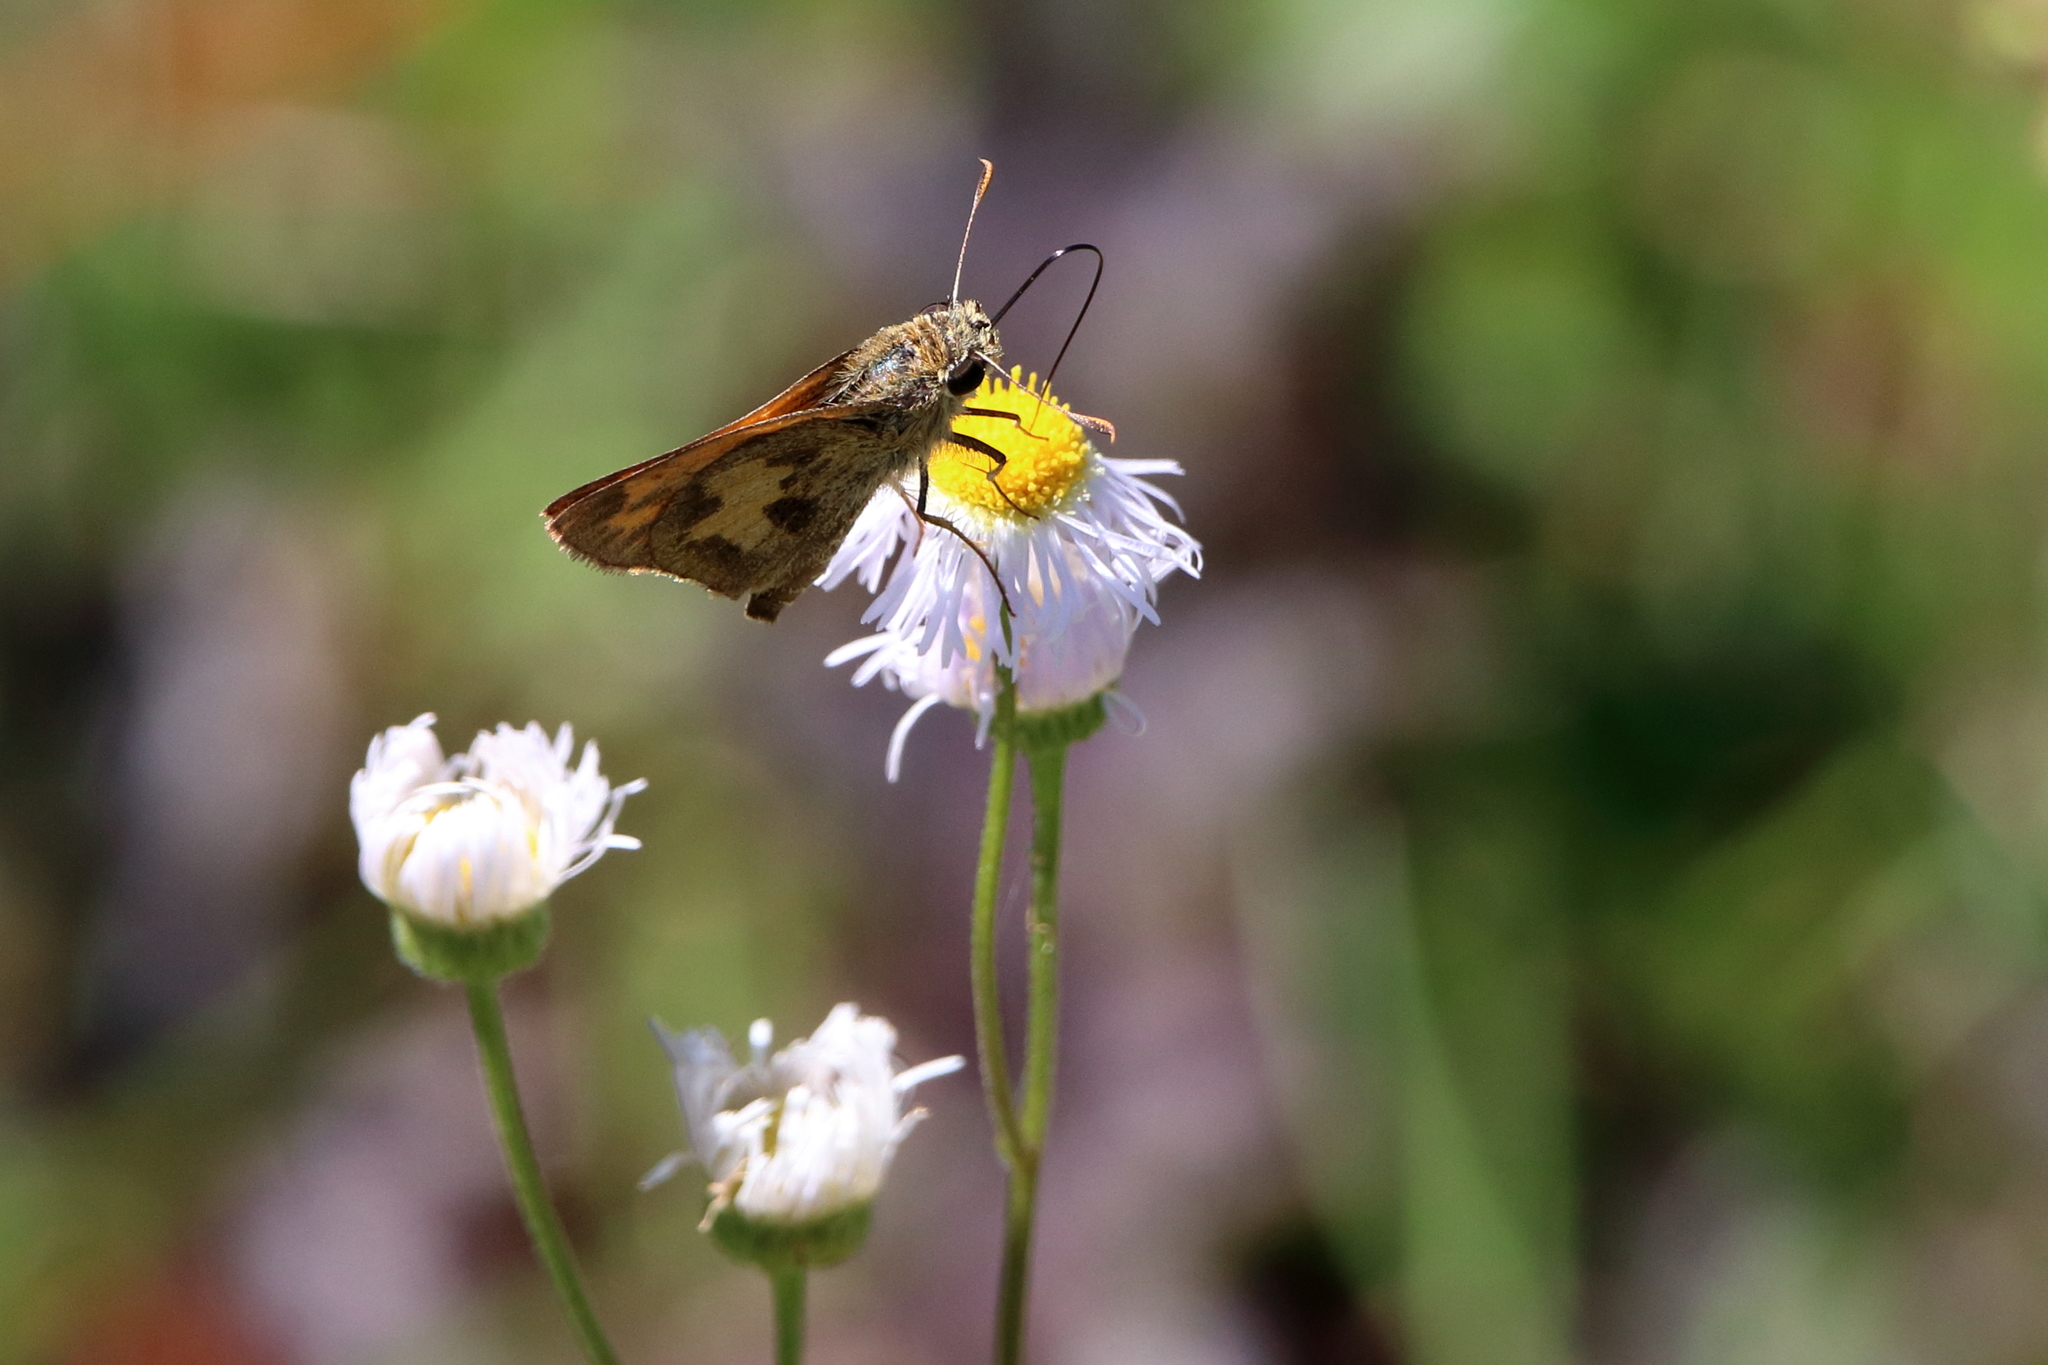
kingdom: Animalia
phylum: Arthropoda
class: Insecta
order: Lepidoptera
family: Hesperiidae
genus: Polites
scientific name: Polites vibex
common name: Whirlabout
